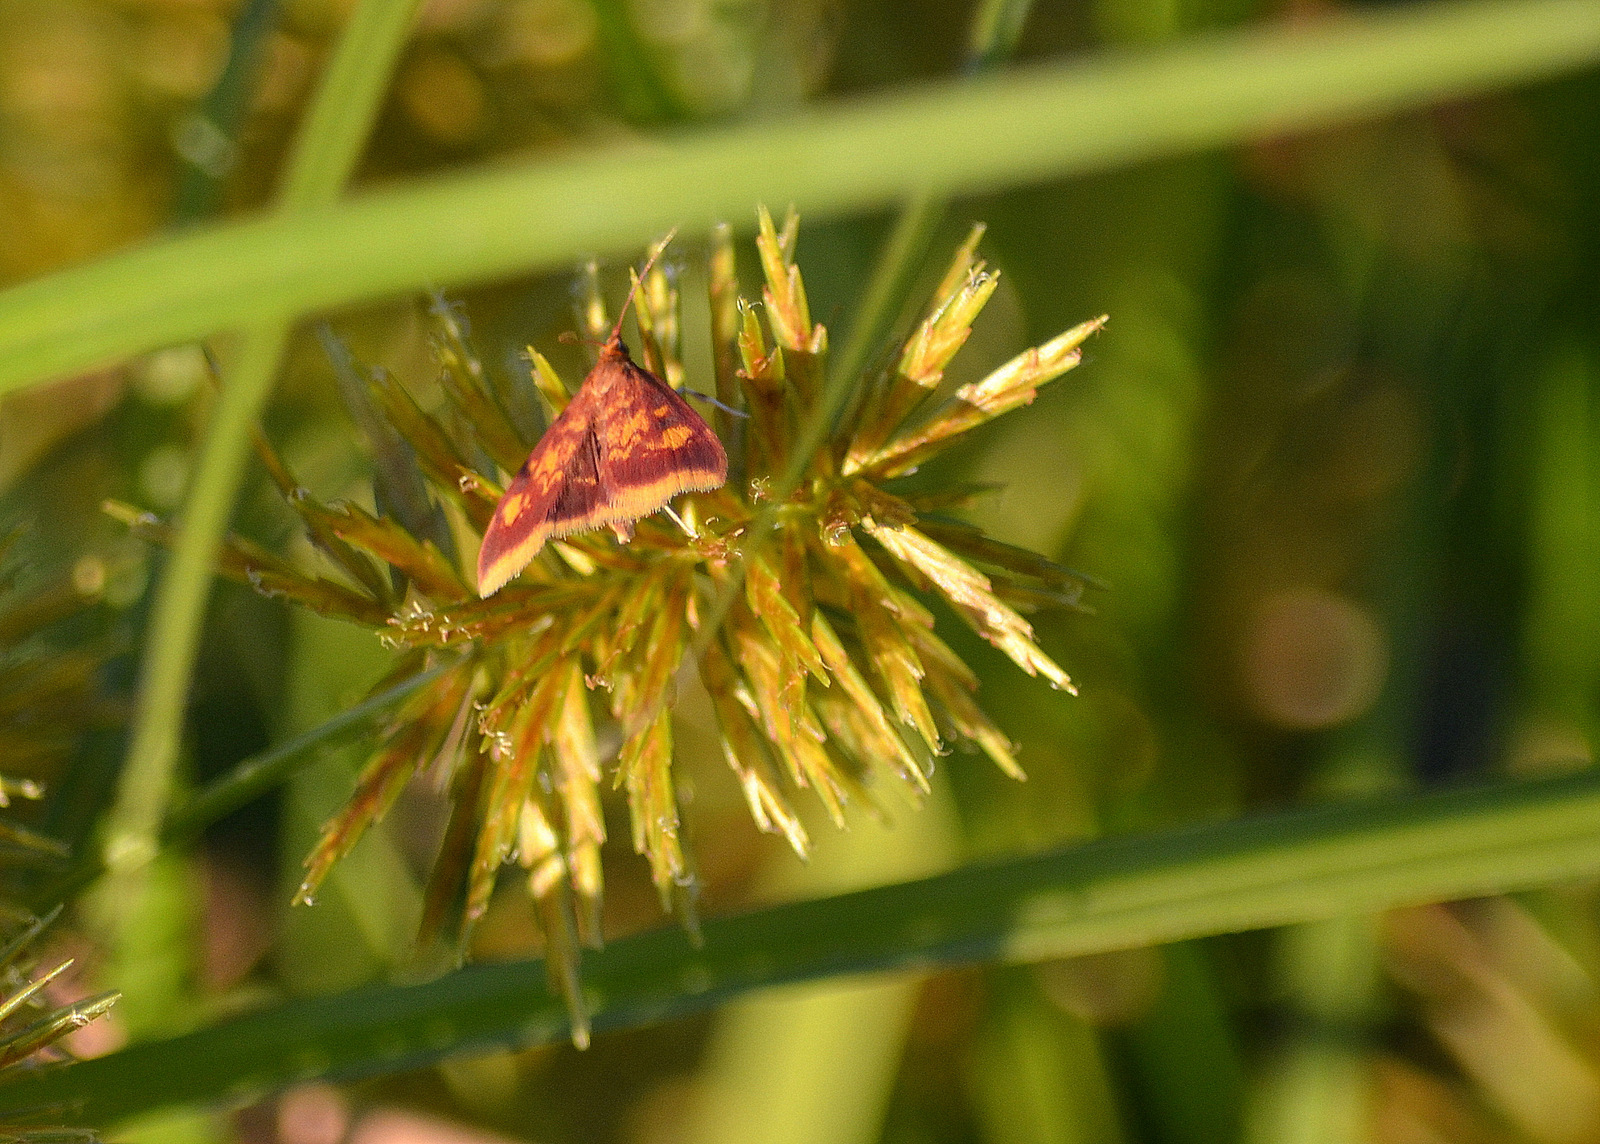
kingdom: Animalia
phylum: Arthropoda
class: Insecta
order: Lepidoptera
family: Crambidae
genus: Pyrausta
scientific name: Pyrausta acrionalis
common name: Mint-loving pyrausta moth
